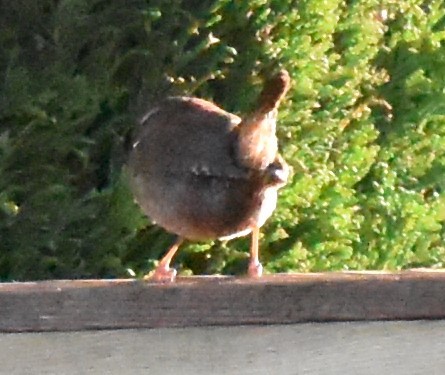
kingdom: Animalia
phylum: Chordata
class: Aves
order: Passeriformes
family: Troglodytidae
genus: Troglodytes
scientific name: Troglodytes troglodytes
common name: Eurasian wren
